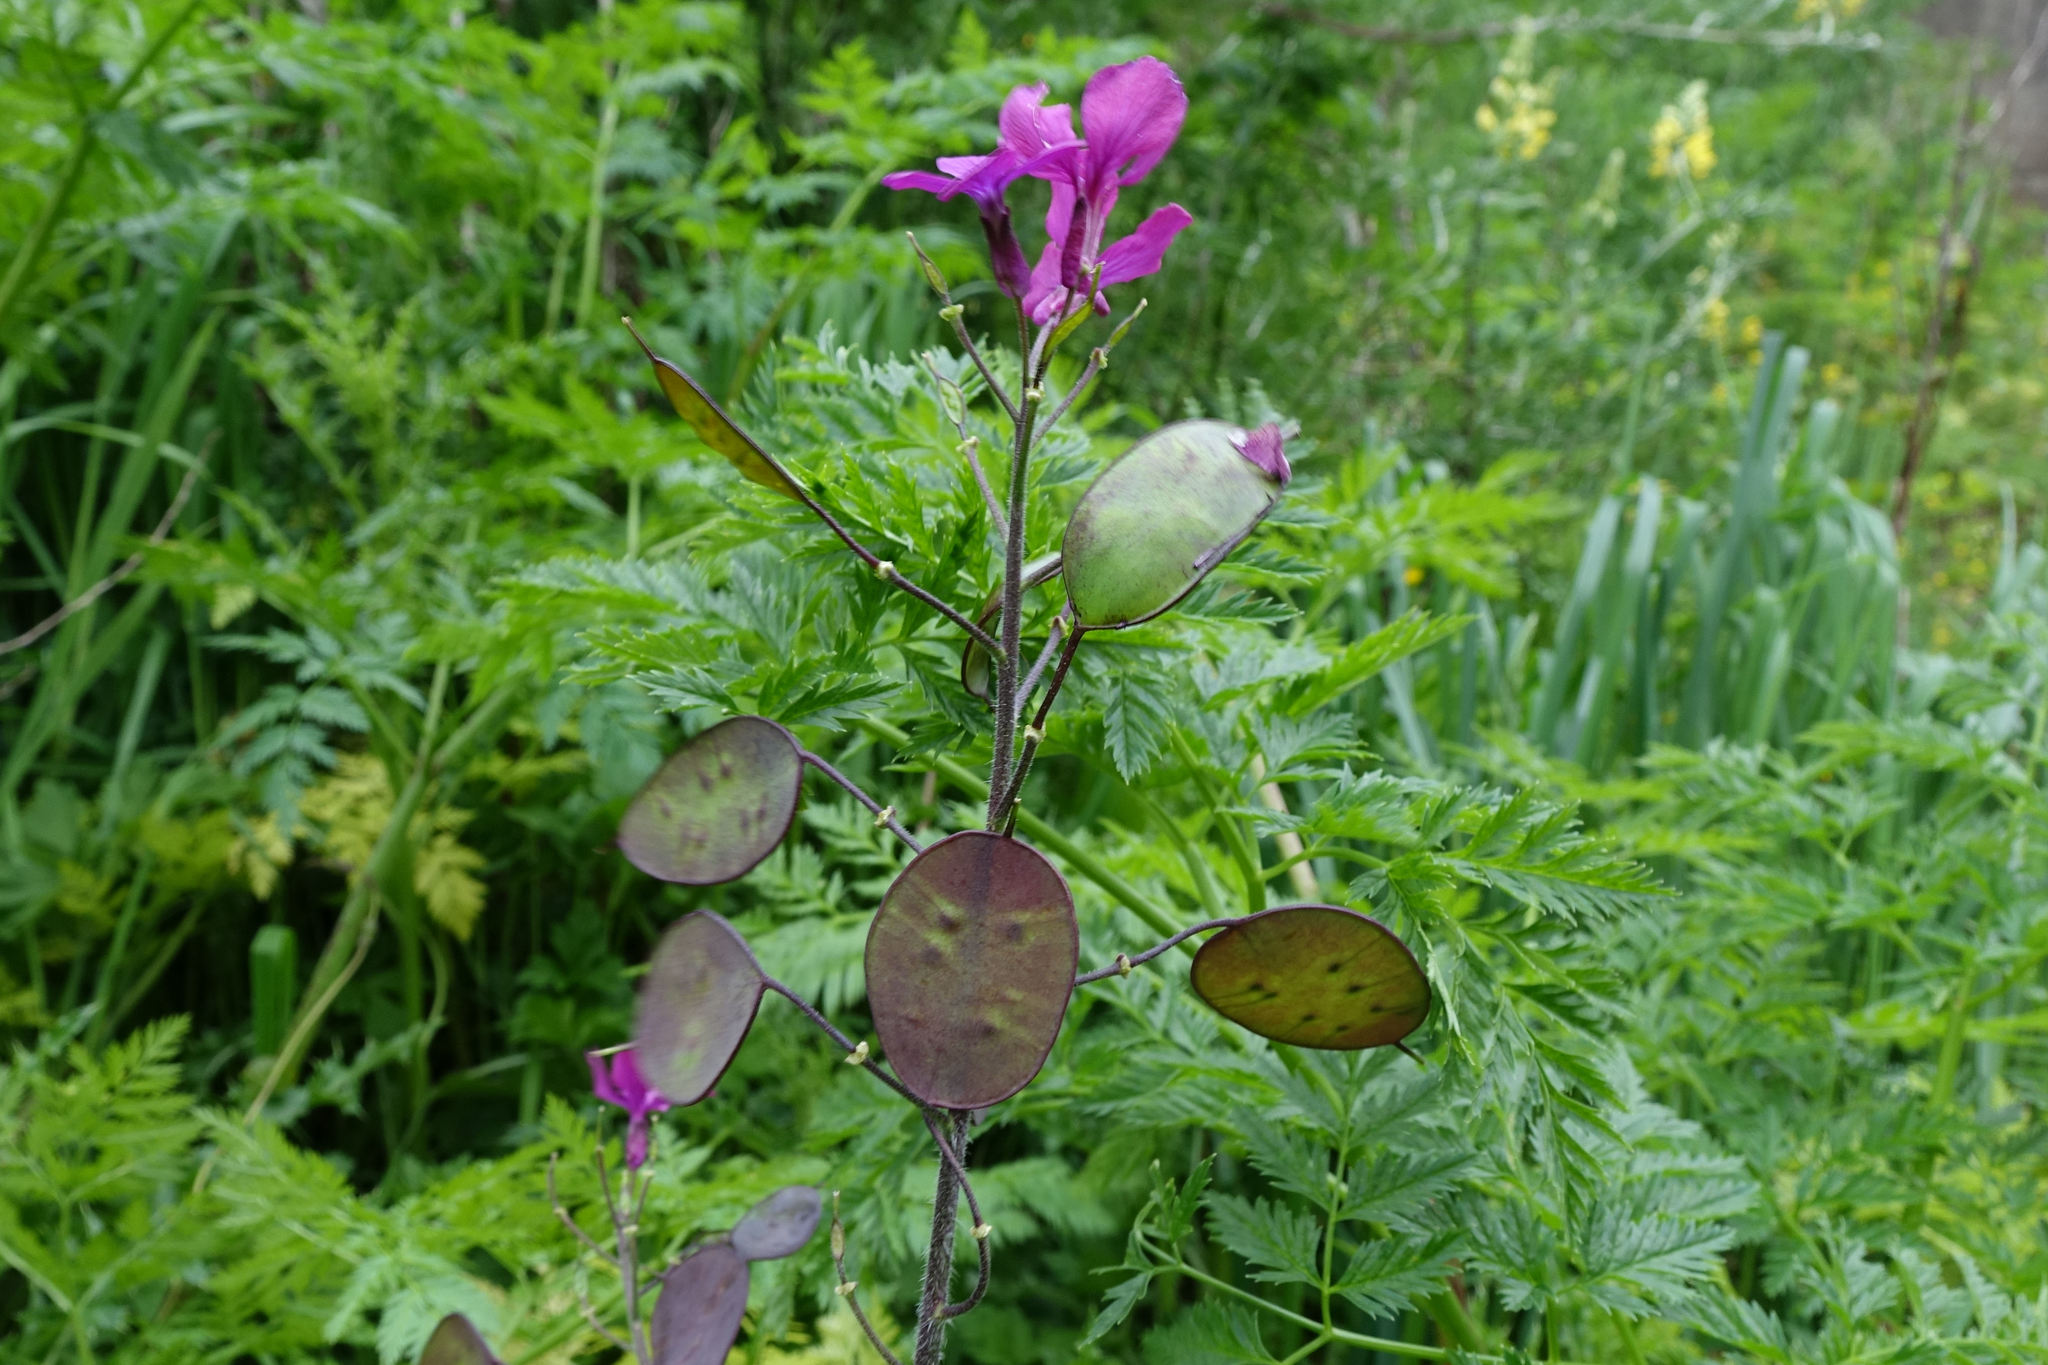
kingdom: Plantae
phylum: Tracheophyta
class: Magnoliopsida
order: Brassicales
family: Brassicaceae
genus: Lunaria
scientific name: Lunaria annua
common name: Honesty
